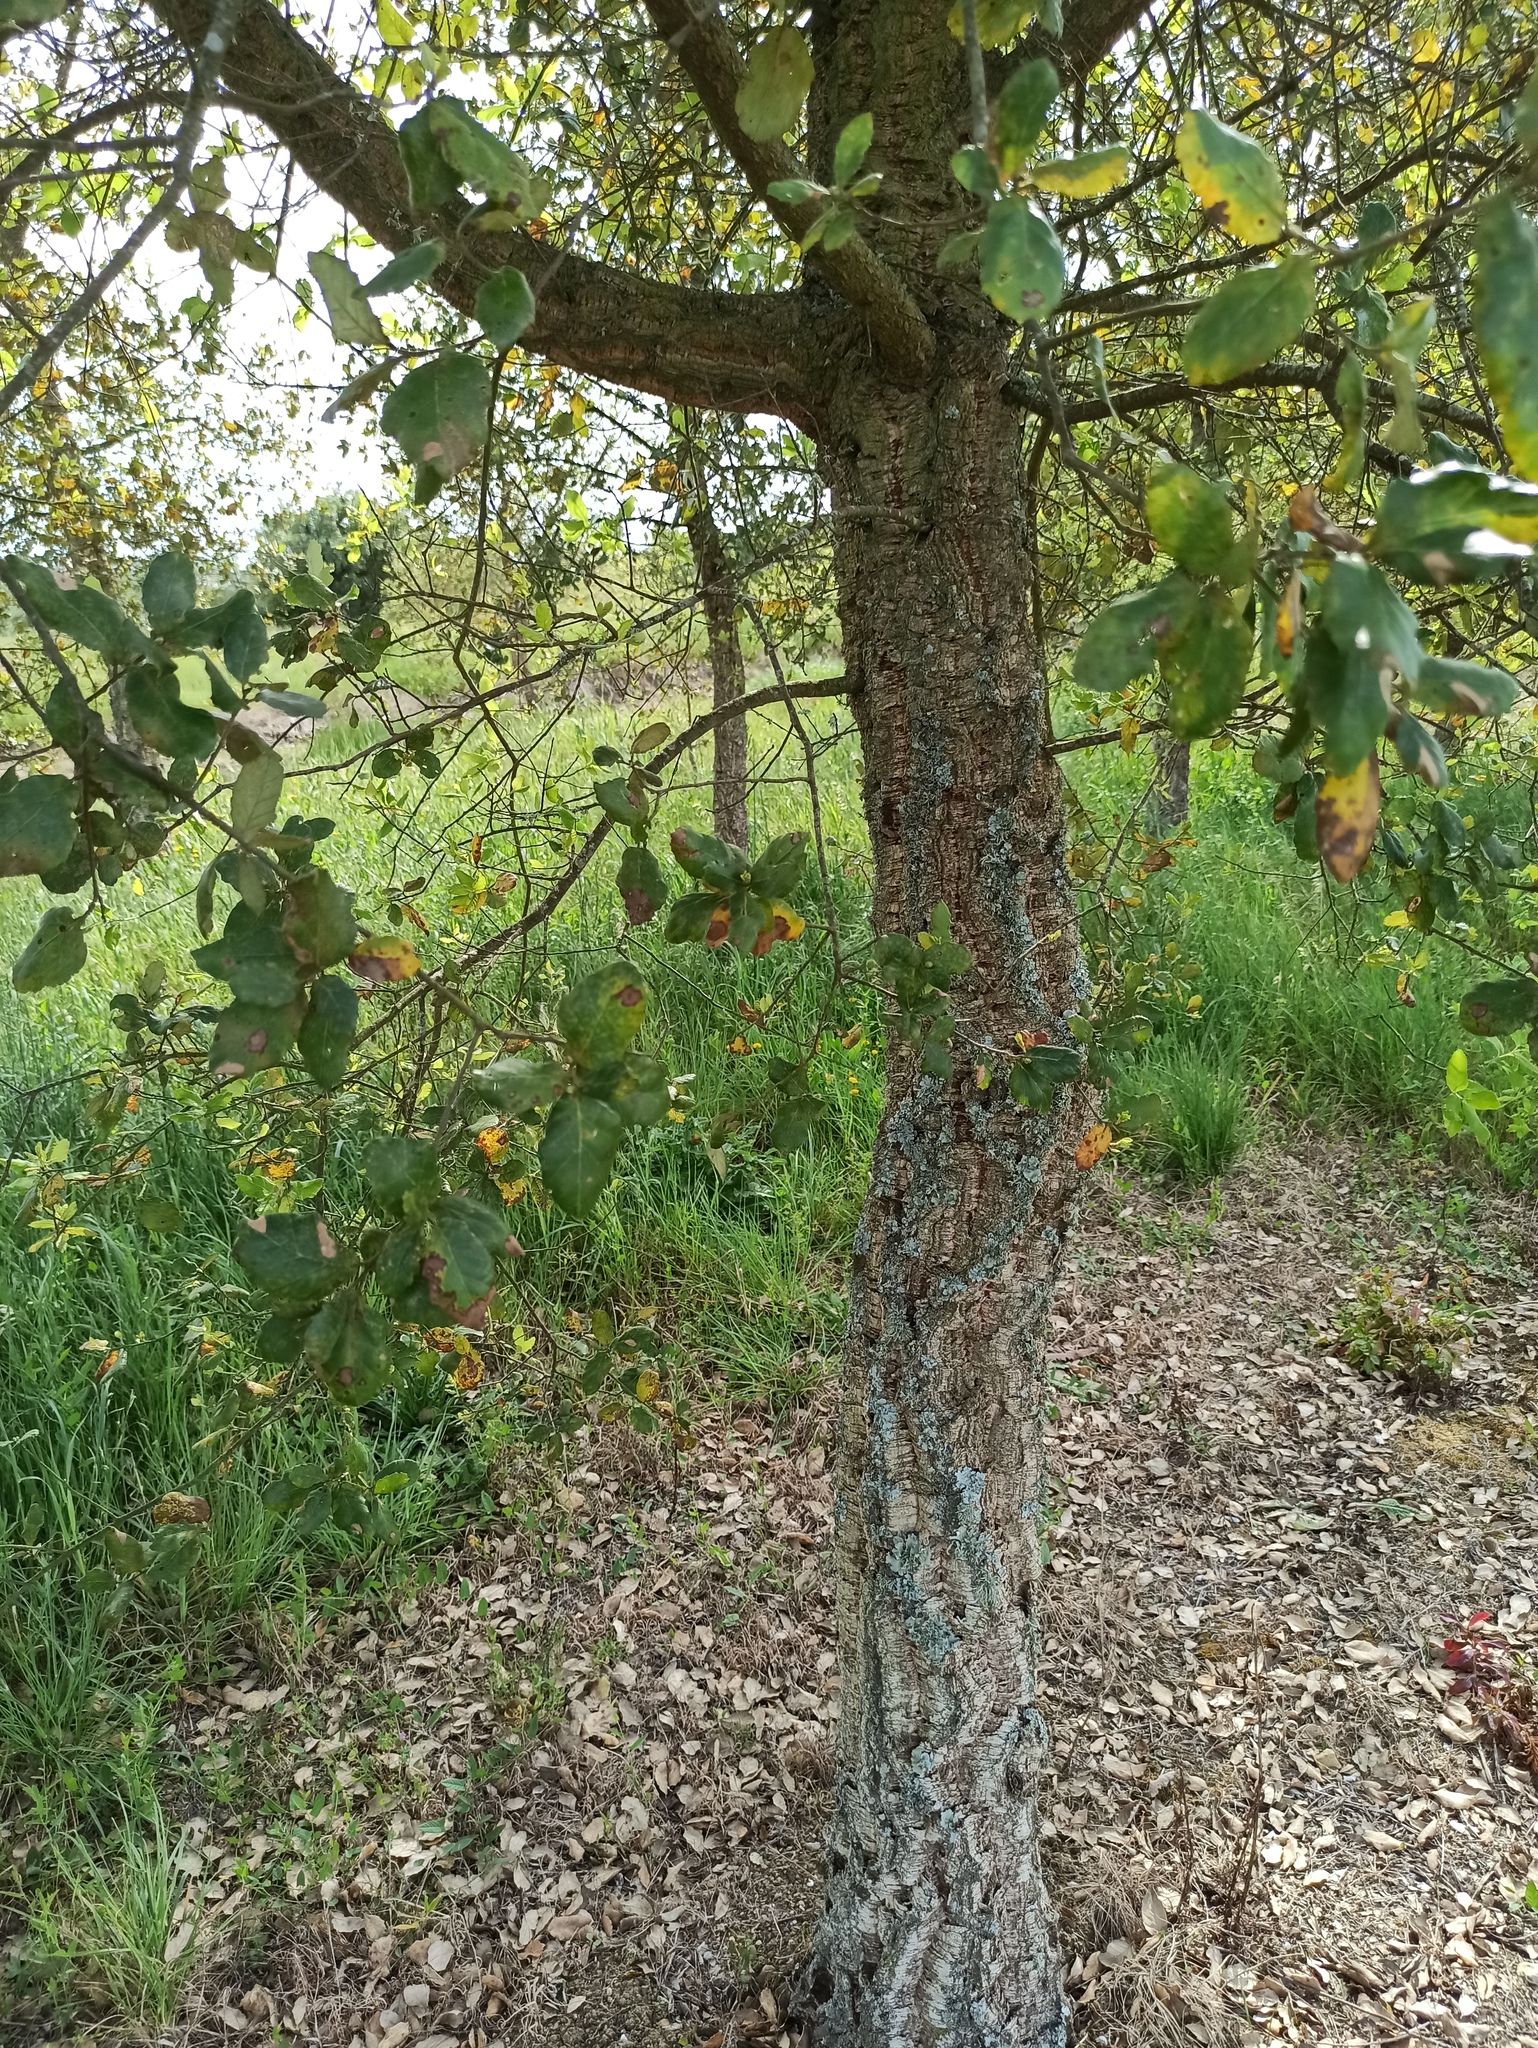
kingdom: Plantae
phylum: Tracheophyta
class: Magnoliopsida
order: Fagales
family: Fagaceae
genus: Quercus
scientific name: Quercus suber
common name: Cork oak
